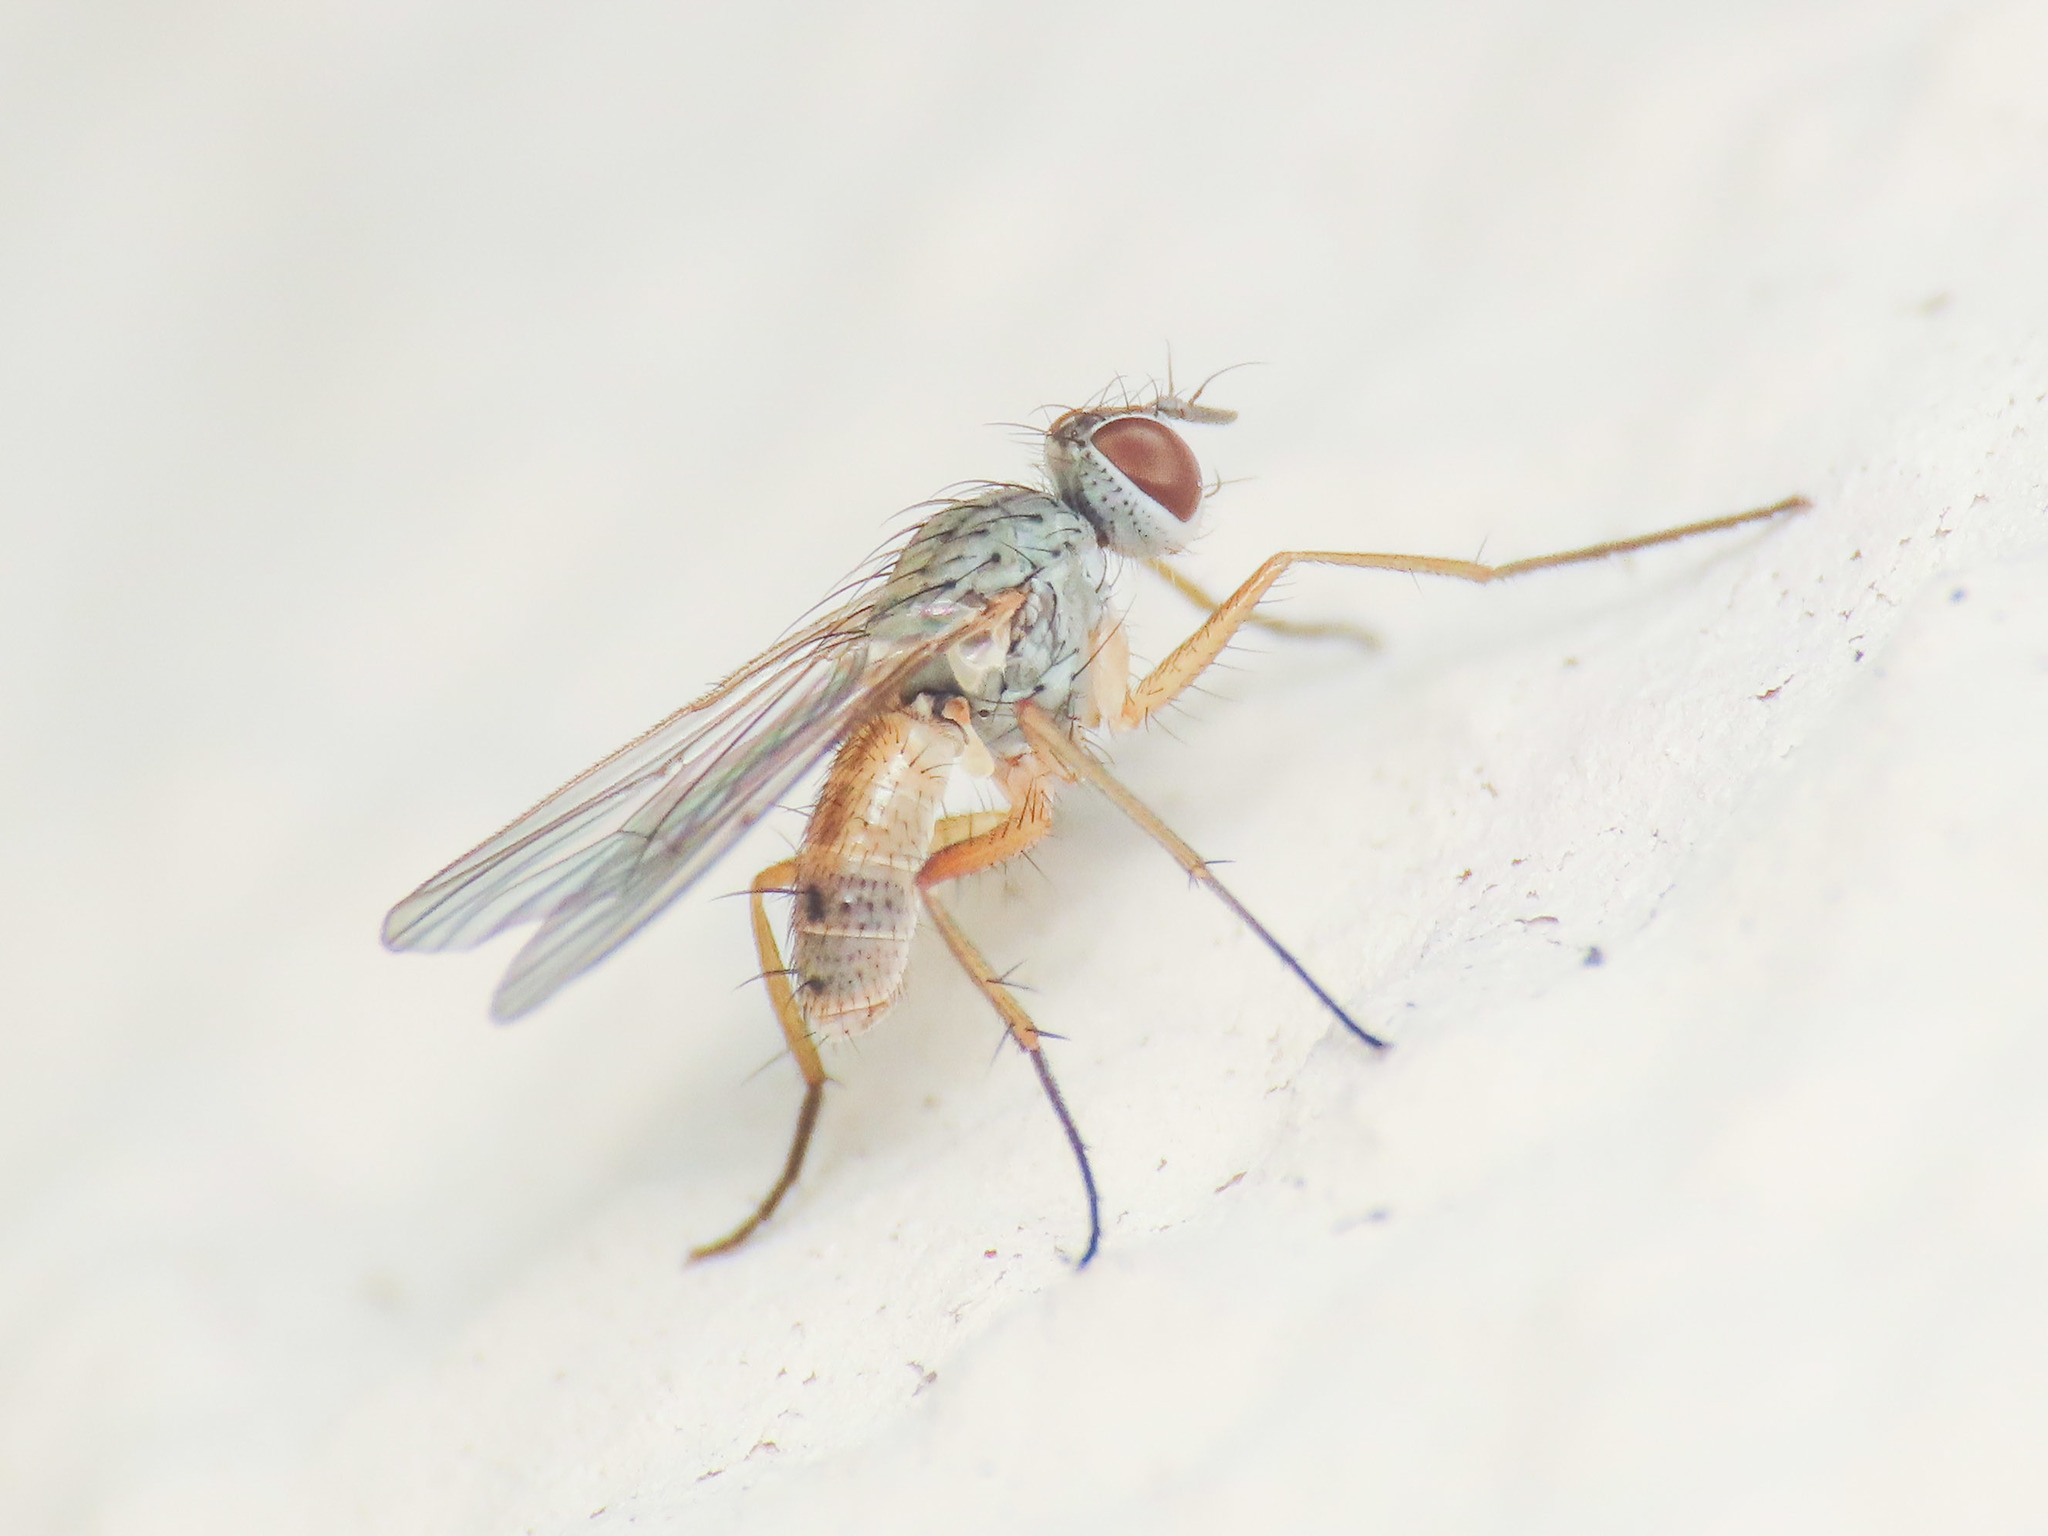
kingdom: Animalia
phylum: Arthropoda
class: Insecta
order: Diptera
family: Muscidae
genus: Coenosia
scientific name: Coenosia testacea
